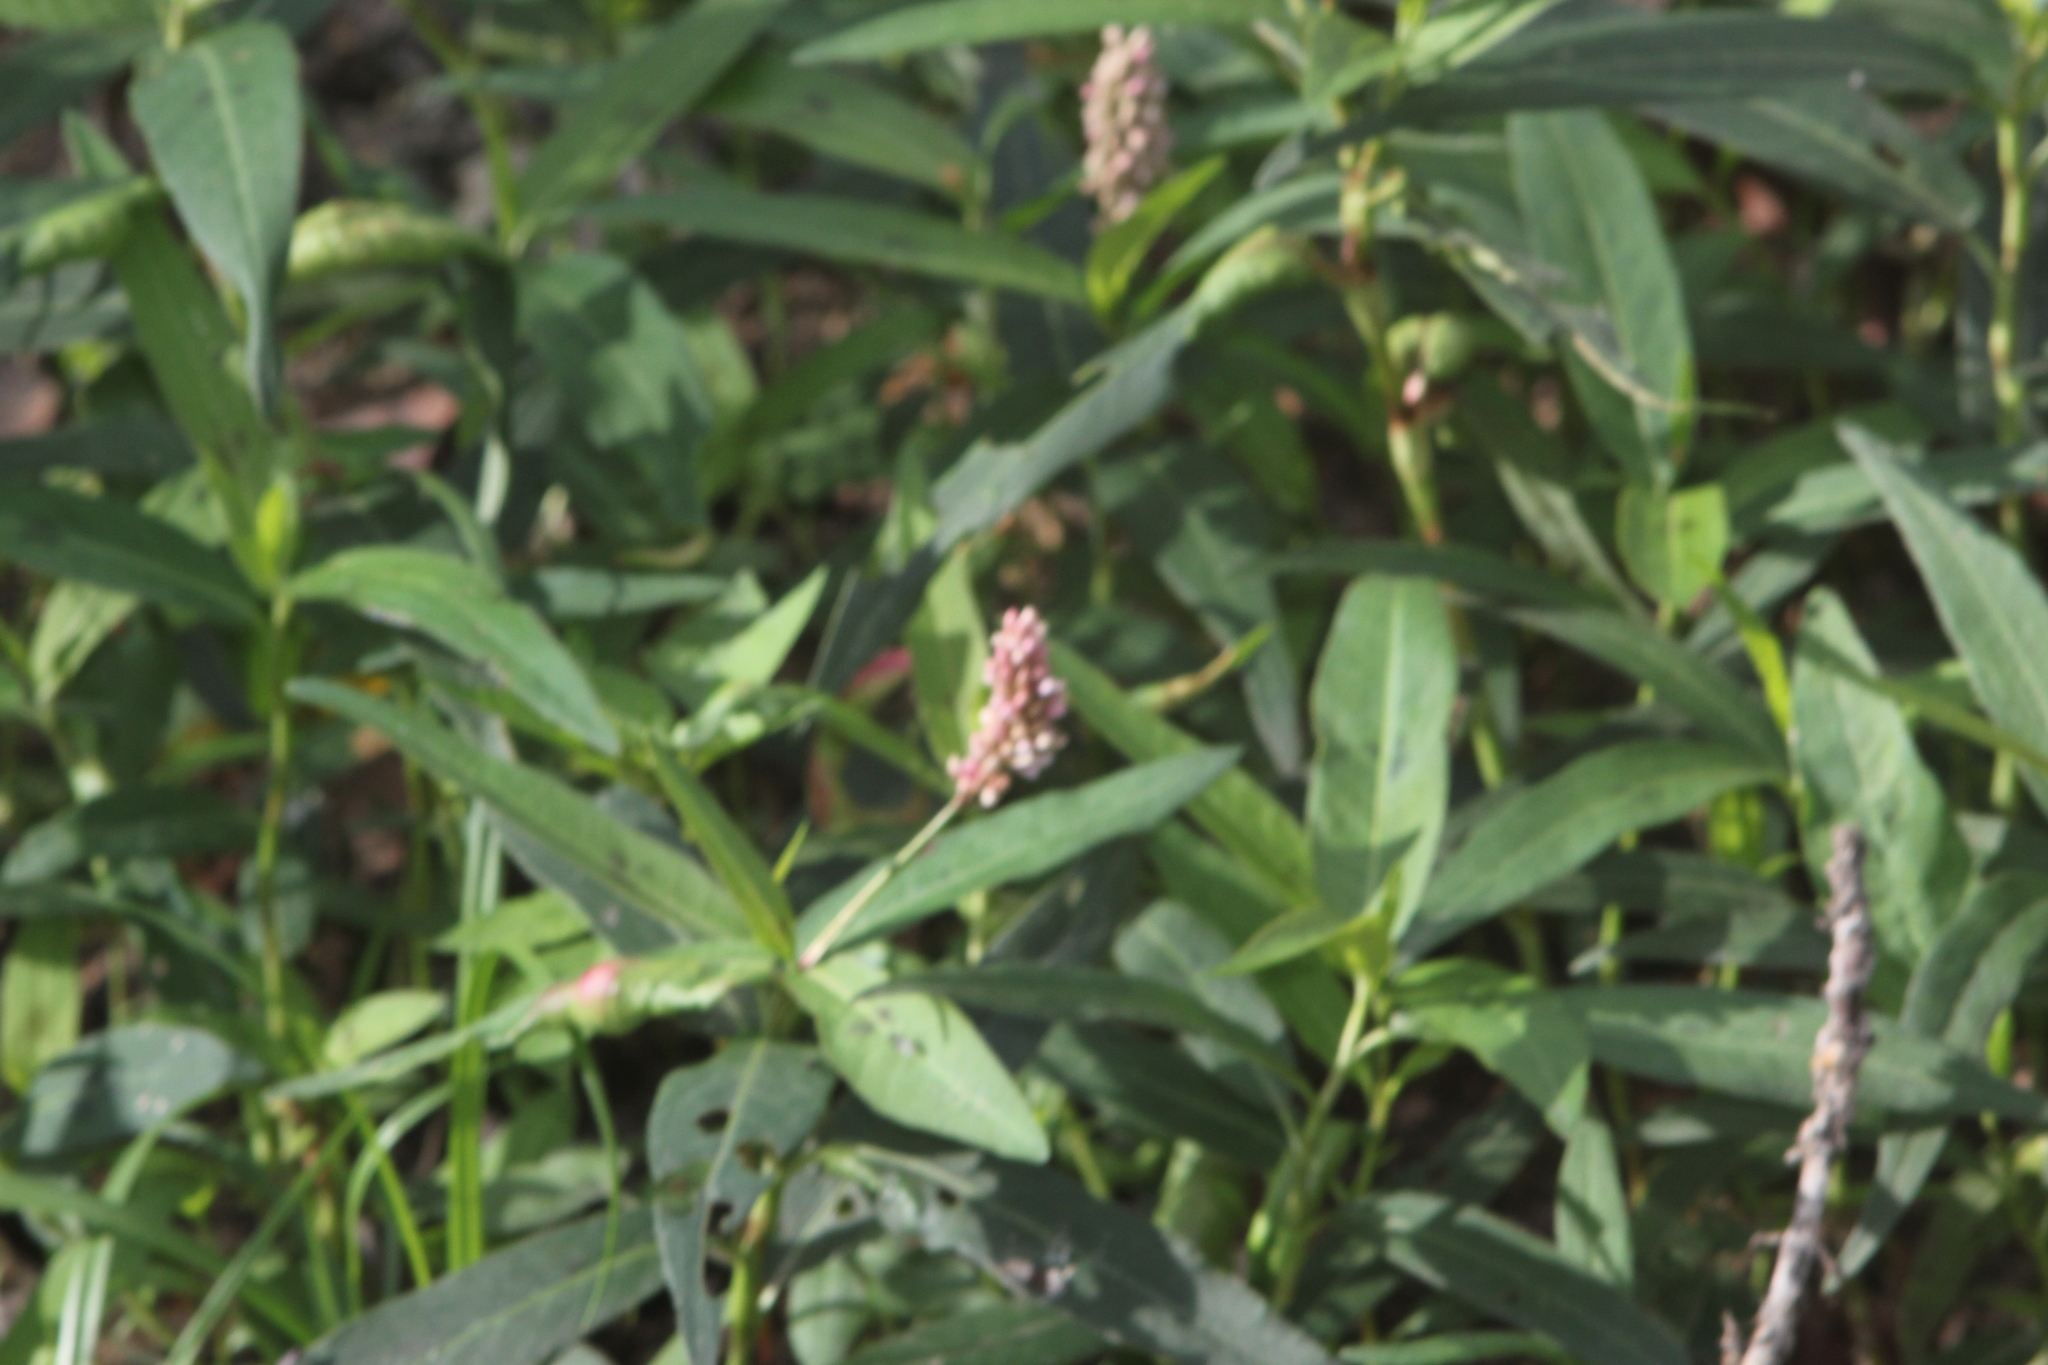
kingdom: Plantae
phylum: Tracheophyta
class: Magnoliopsida
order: Caryophyllales
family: Polygonaceae
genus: Persicaria
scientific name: Persicaria amphibia
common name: Amphibious bistort
